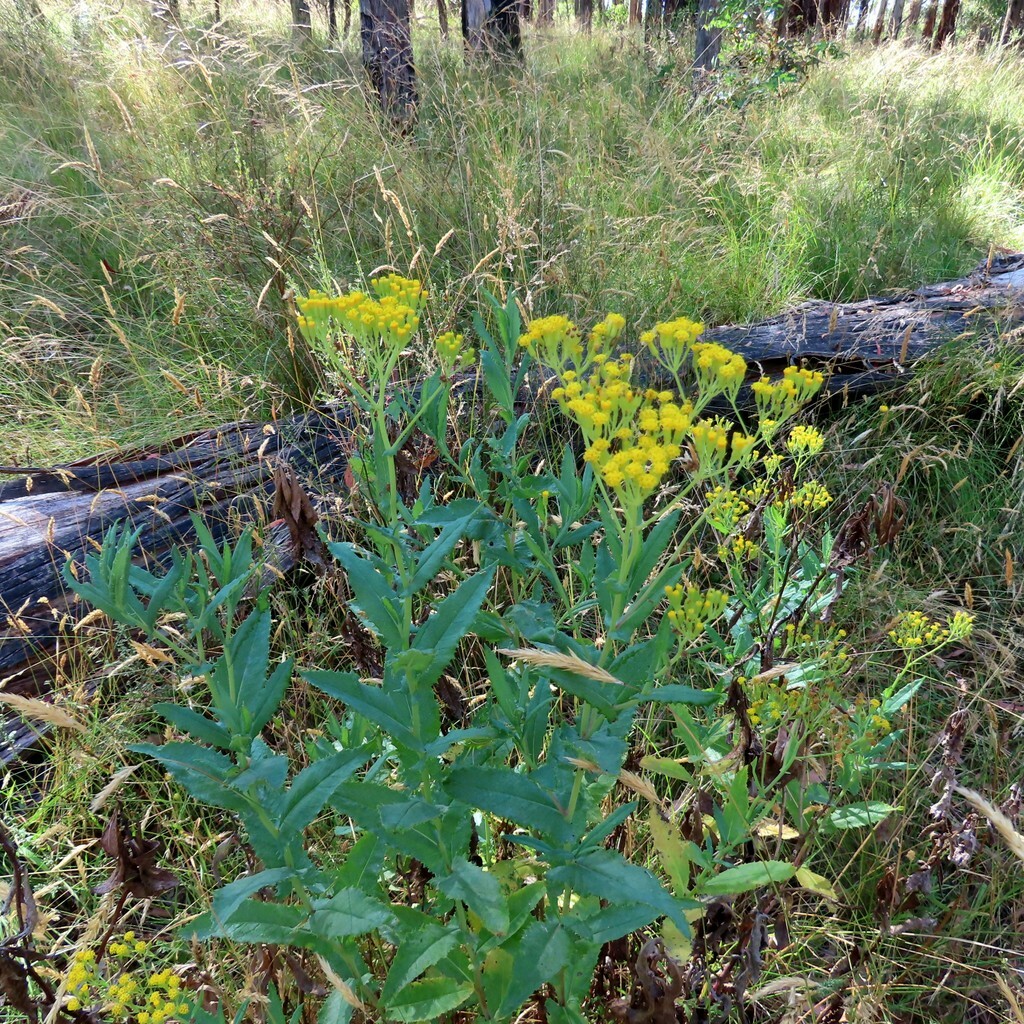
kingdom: Plantae
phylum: Tracheophyta
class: Magnoliopsida
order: Asterales
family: Asteraceae
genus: Senecio
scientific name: Senecio odoratus
